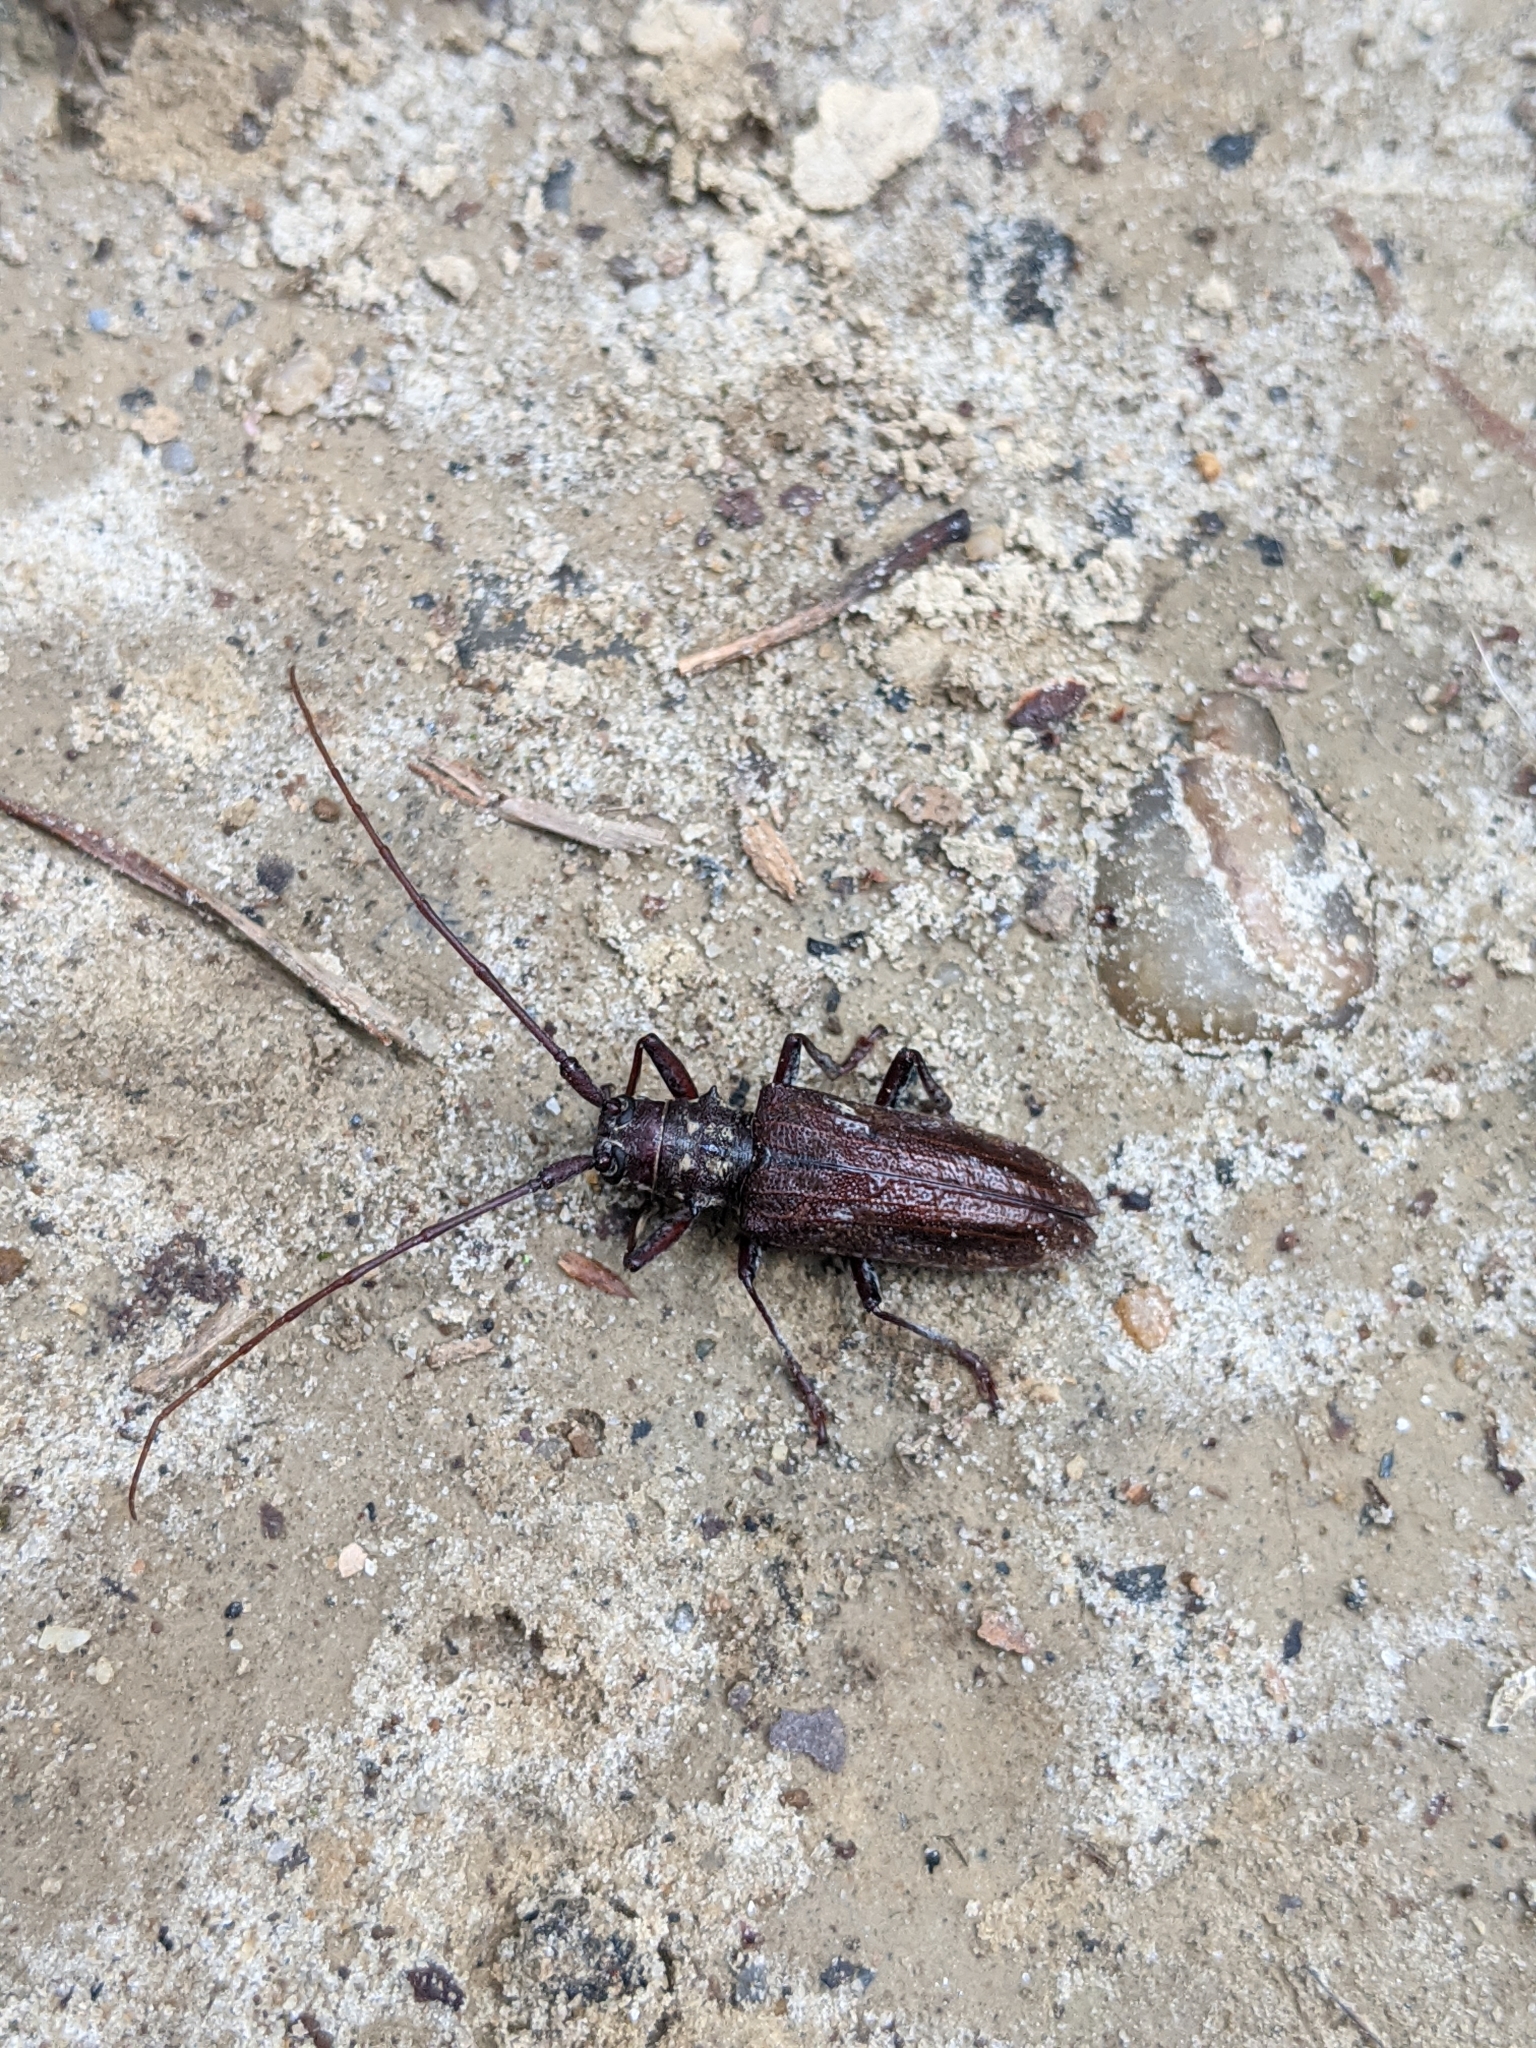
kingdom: Animalia
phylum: Arthropoda
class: Insecta
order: Coleoptera
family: Cerambycidae
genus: Monochamus
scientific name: Monochamus carolinensis
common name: Carolina pine sawyer
